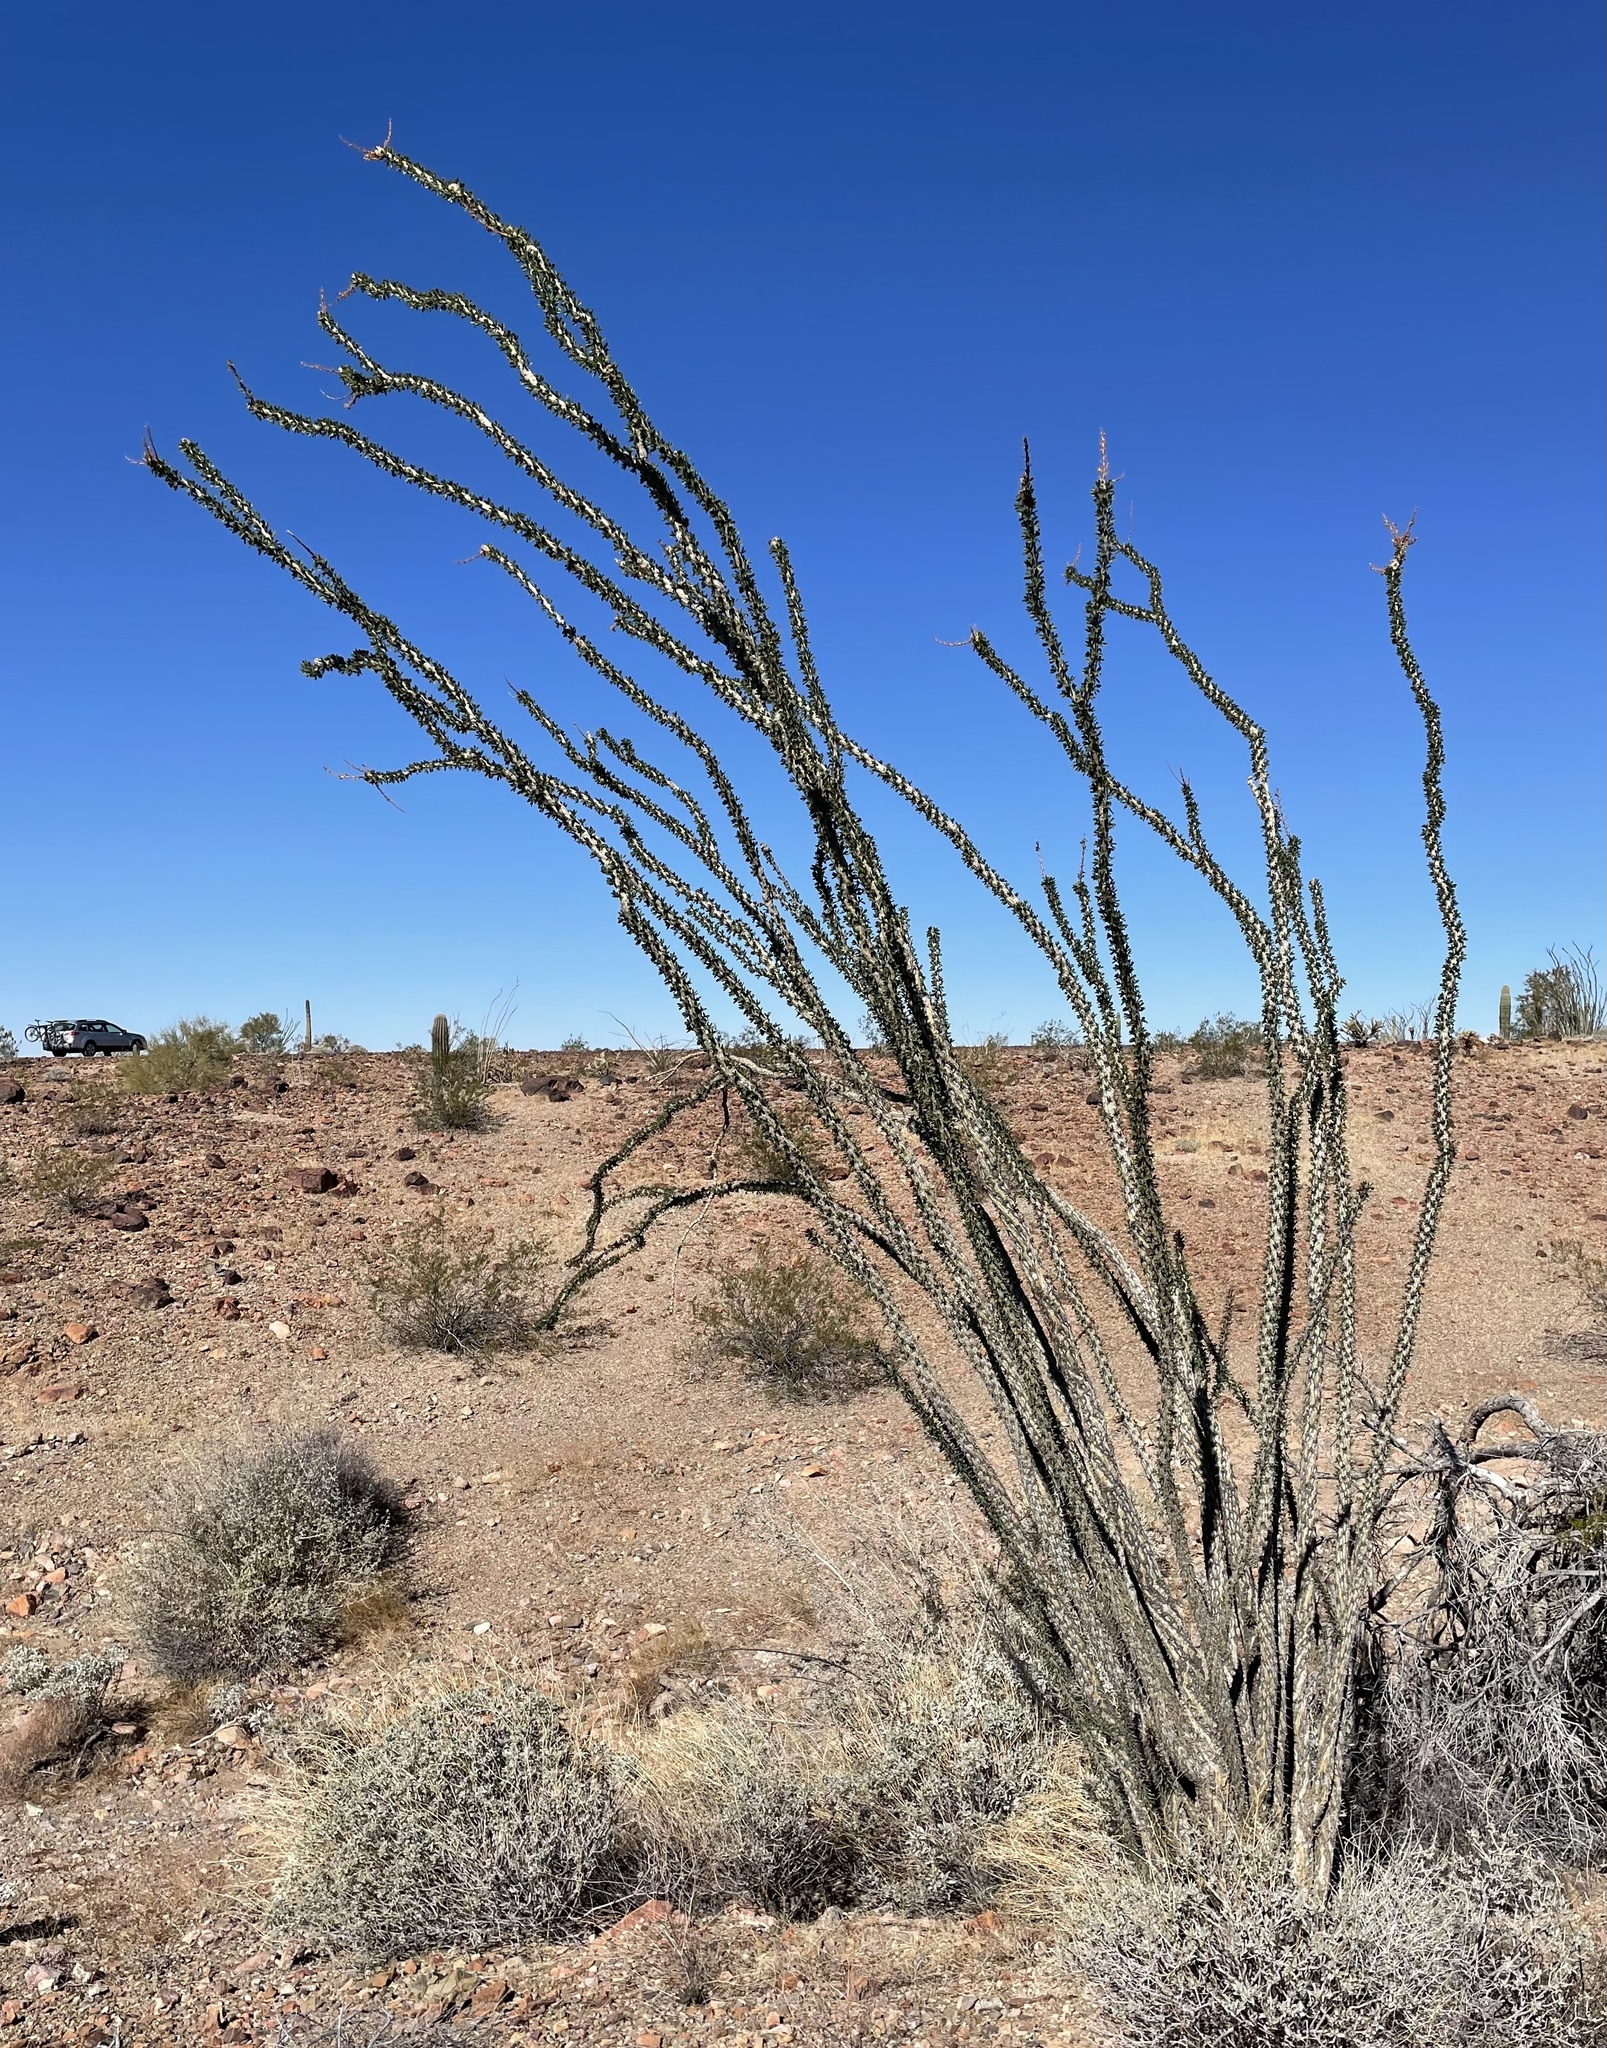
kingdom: Plantae
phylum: Tracheophyta
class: Magnoliopsida
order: Ericales
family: Fouquieriaceae
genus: Fouquieria
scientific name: Fouquieria splendens
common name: Vine-cactus
